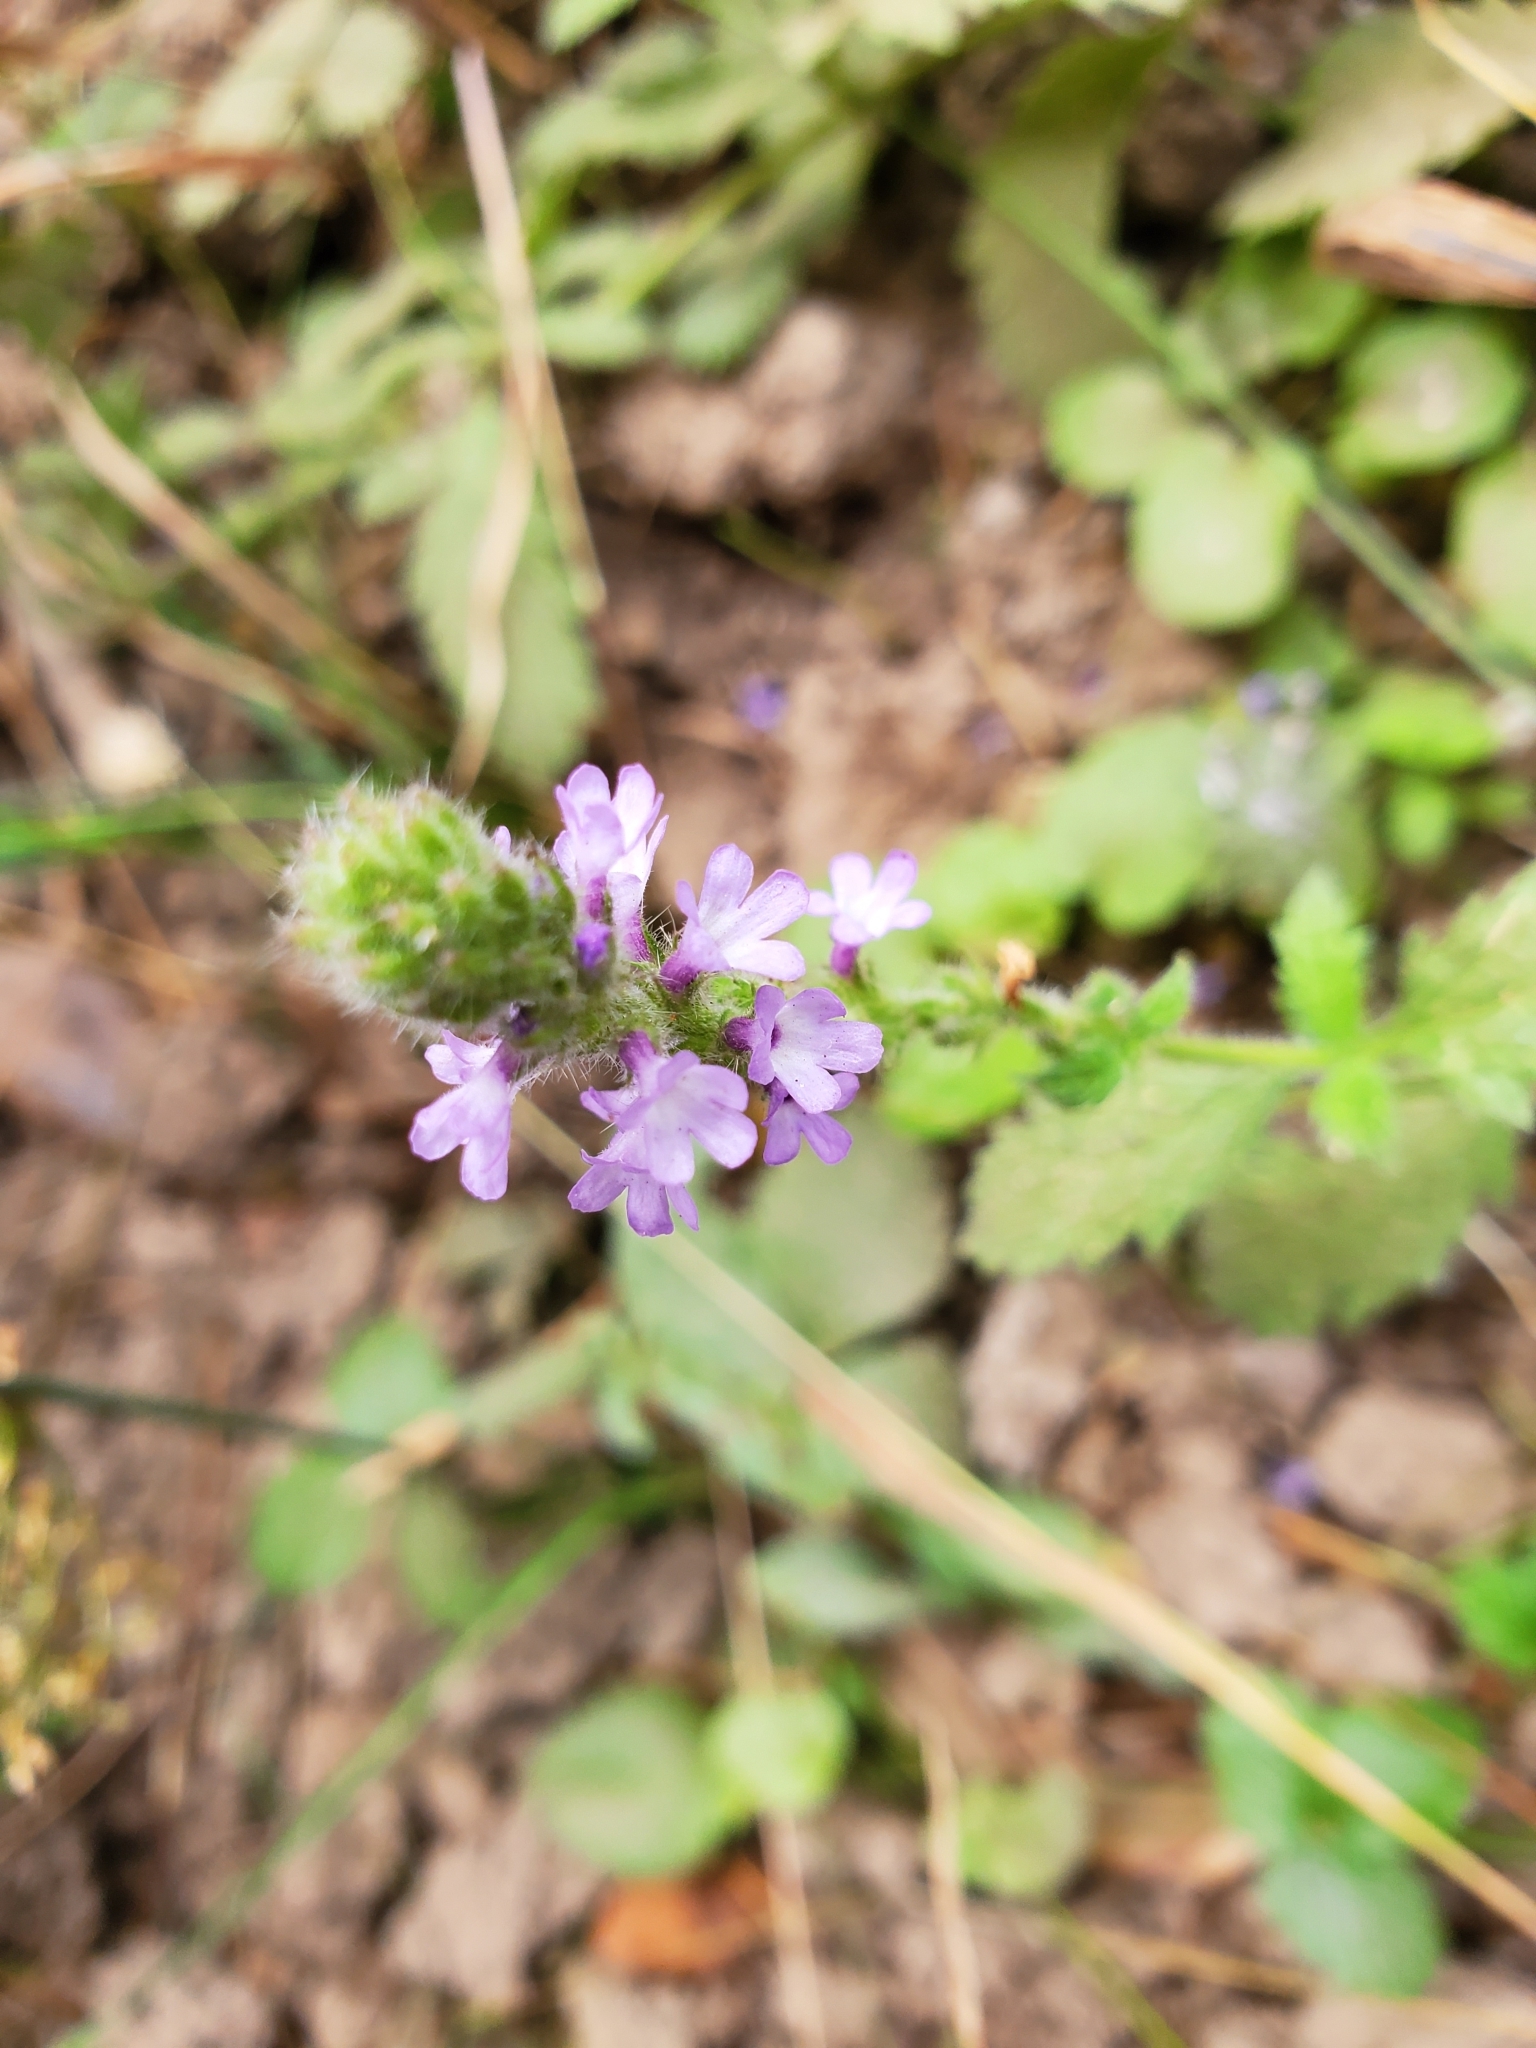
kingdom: Plantae
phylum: Tracheophyta
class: Magnoliopsida
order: Lamiales
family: Verbenaceae
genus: Verbena
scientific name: Verbena lasiostachys
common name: Vervain
